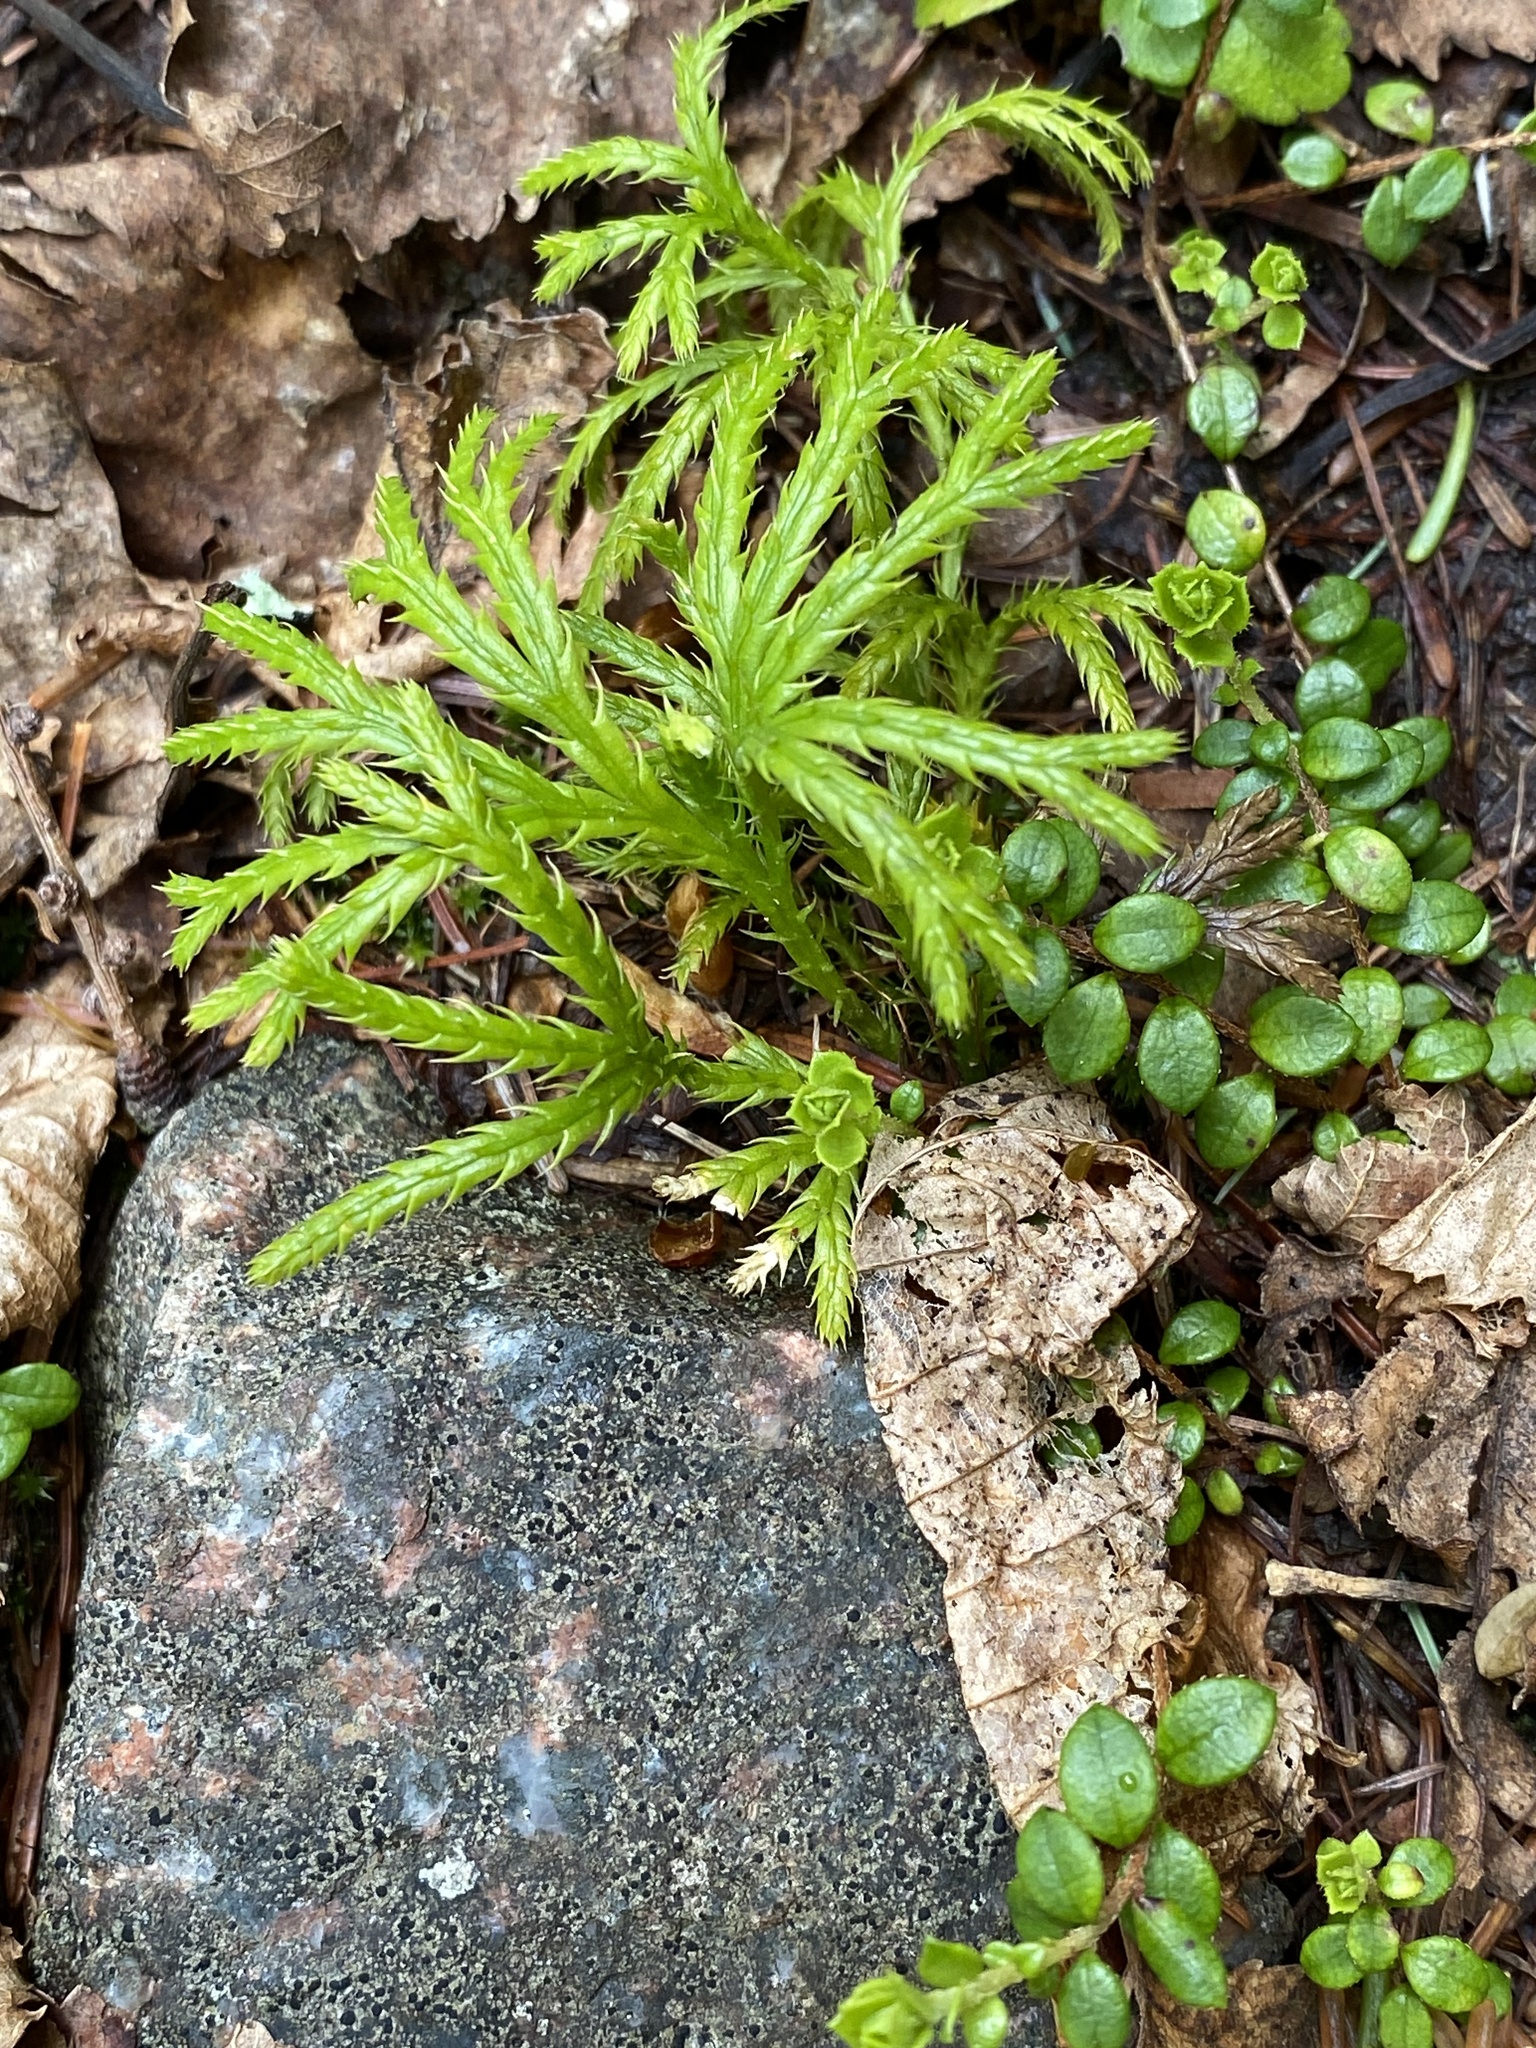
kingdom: Plantae
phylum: Tracheophyta
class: Lycopodiopsida
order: Lycopodiales
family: Lycopodiaceae
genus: Diphasiastrum
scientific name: Diphasiastrum digitatum
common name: Southern running-pine
